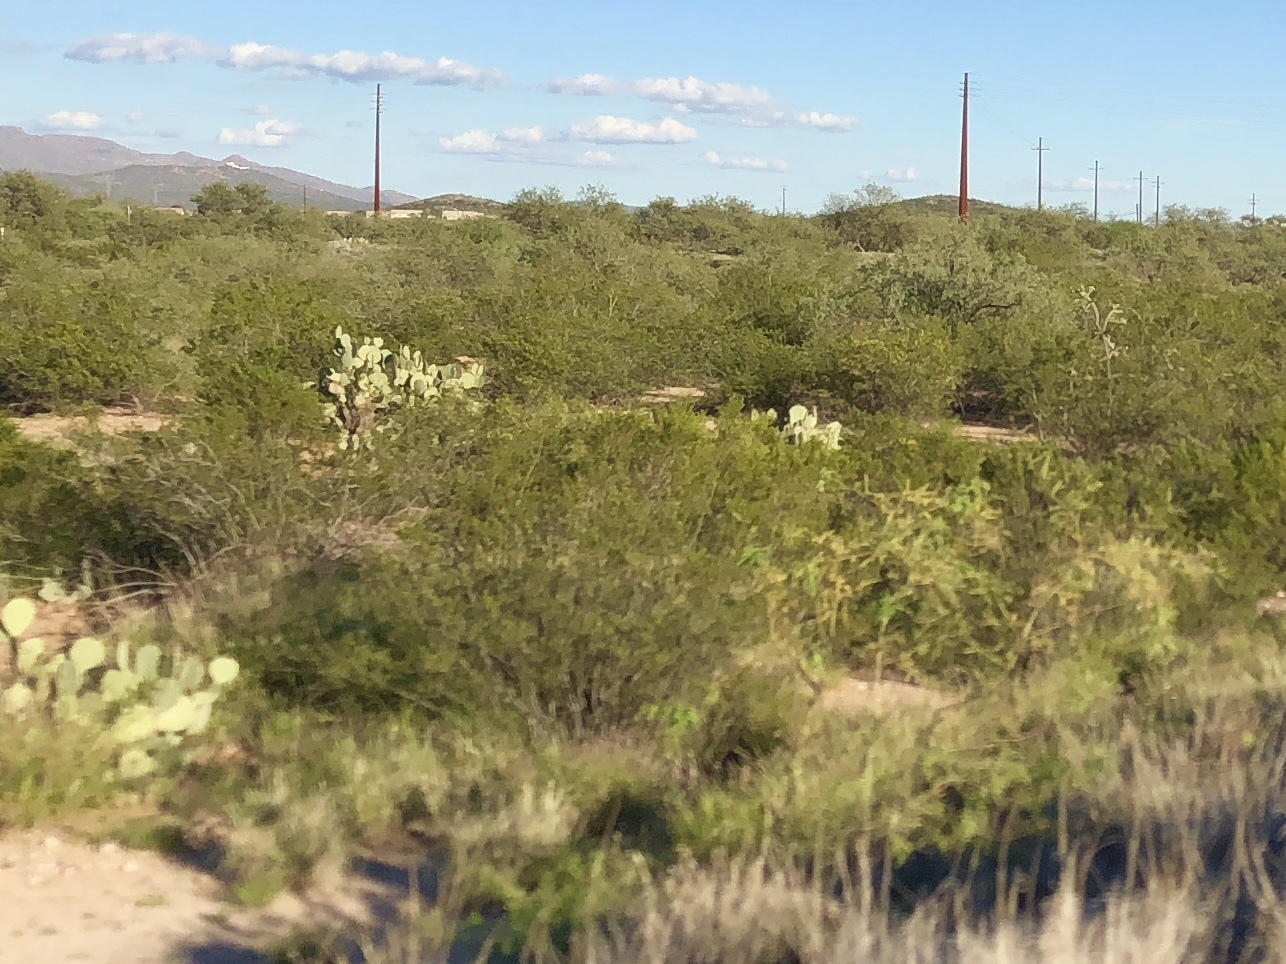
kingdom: Plantae
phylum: Tracheophyta
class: Magnoliopsida
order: Zygophyllales
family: Zygophyllaceae
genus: Larrea
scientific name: Larrea tridentata
